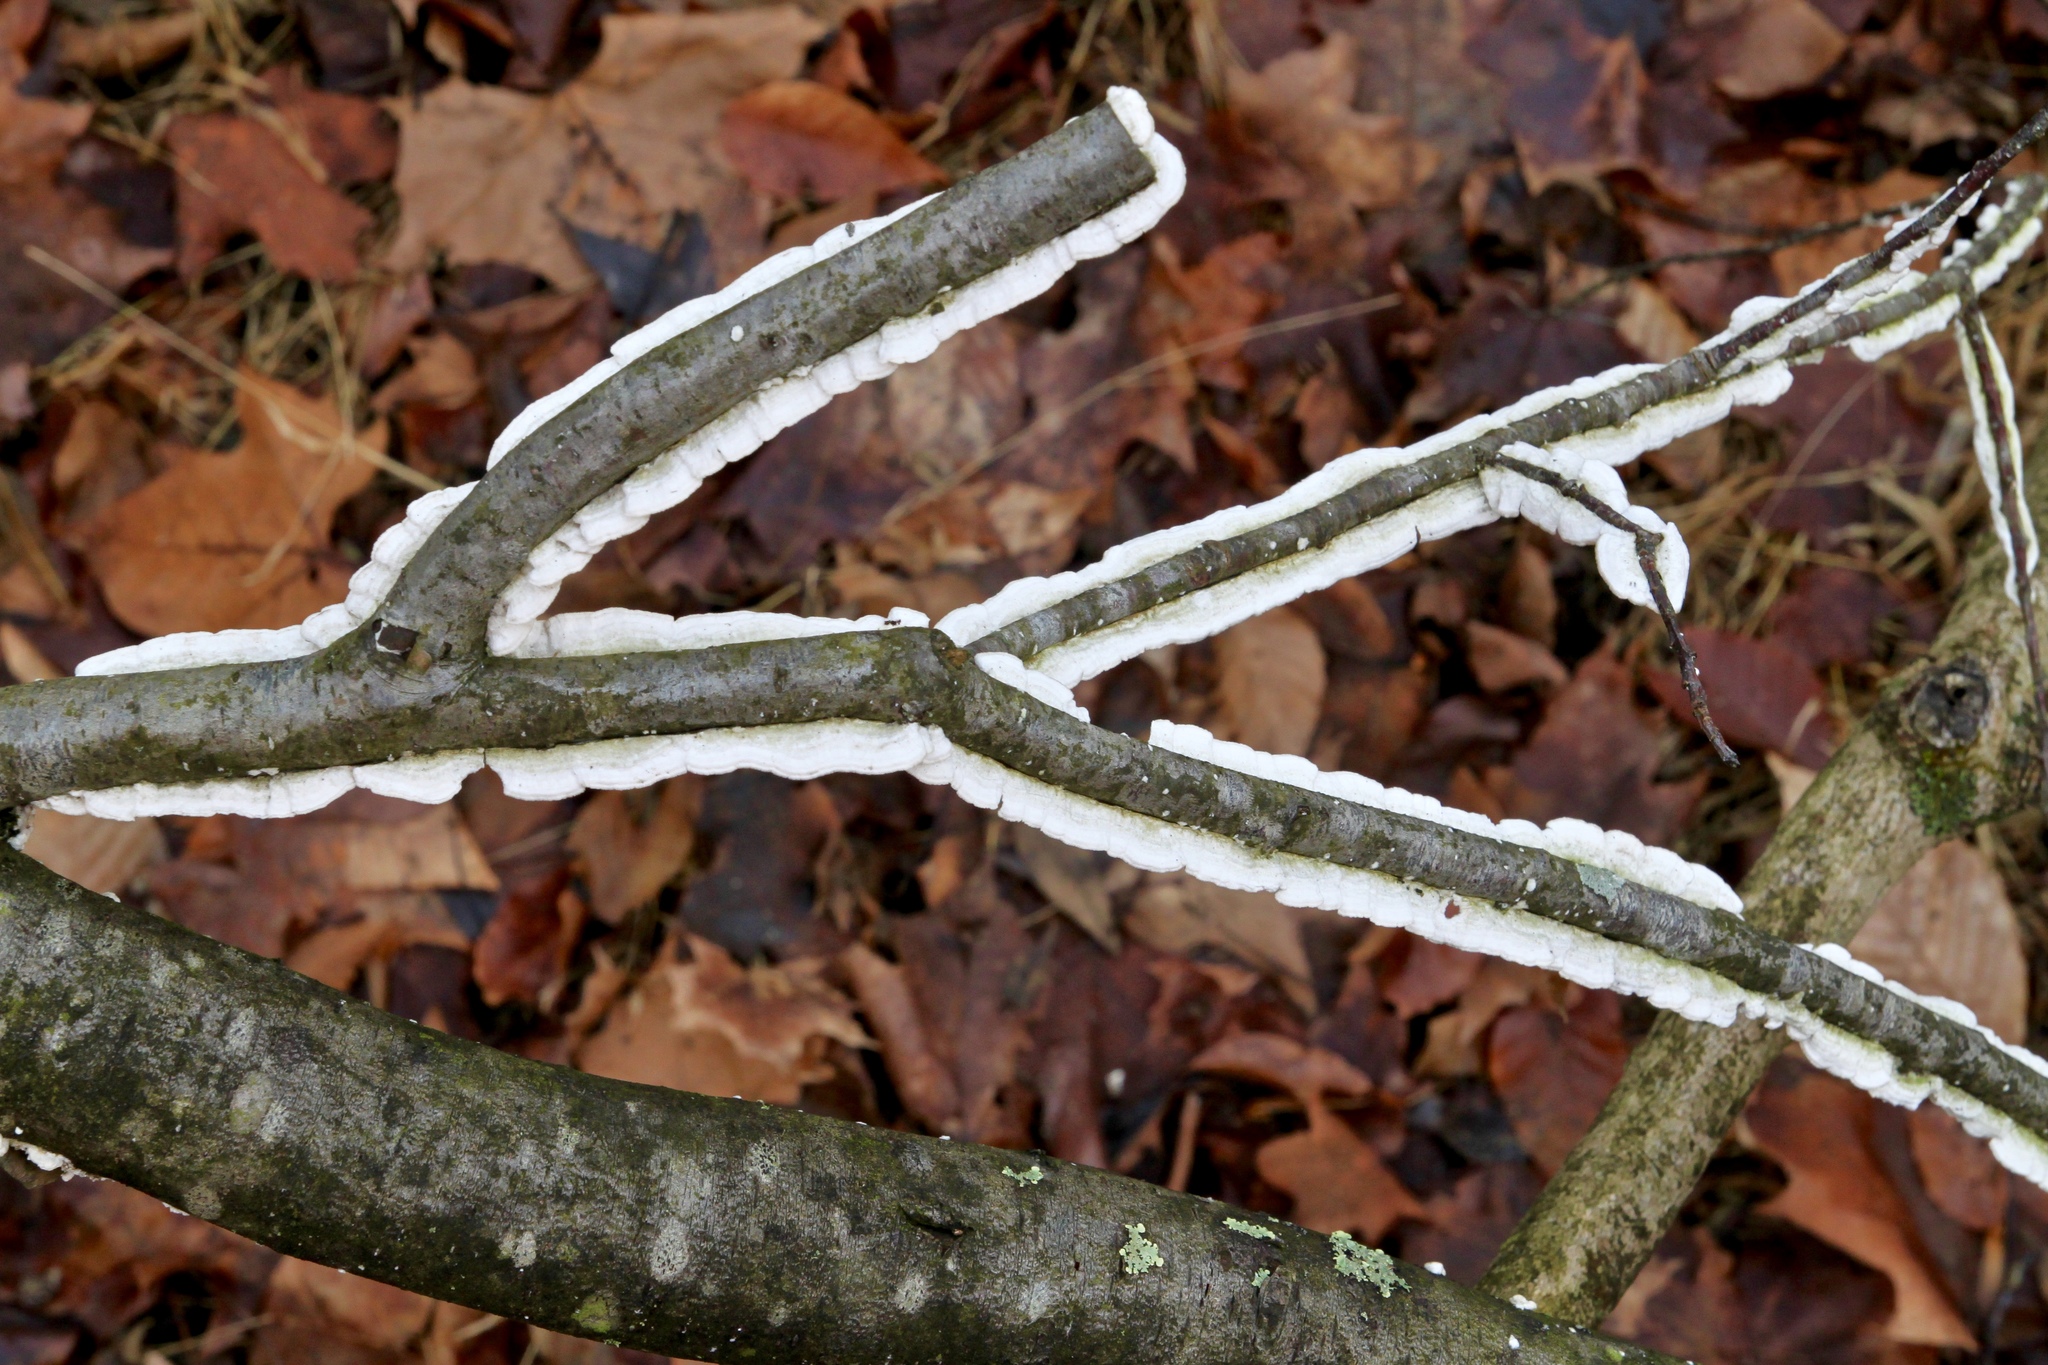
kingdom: Fungi
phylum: Basidiomycota
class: Agaricomycetes
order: Polyporales
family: Irpicaceae
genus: Irpex
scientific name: Irpex lacteus
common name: Milk-white toothed polypore
